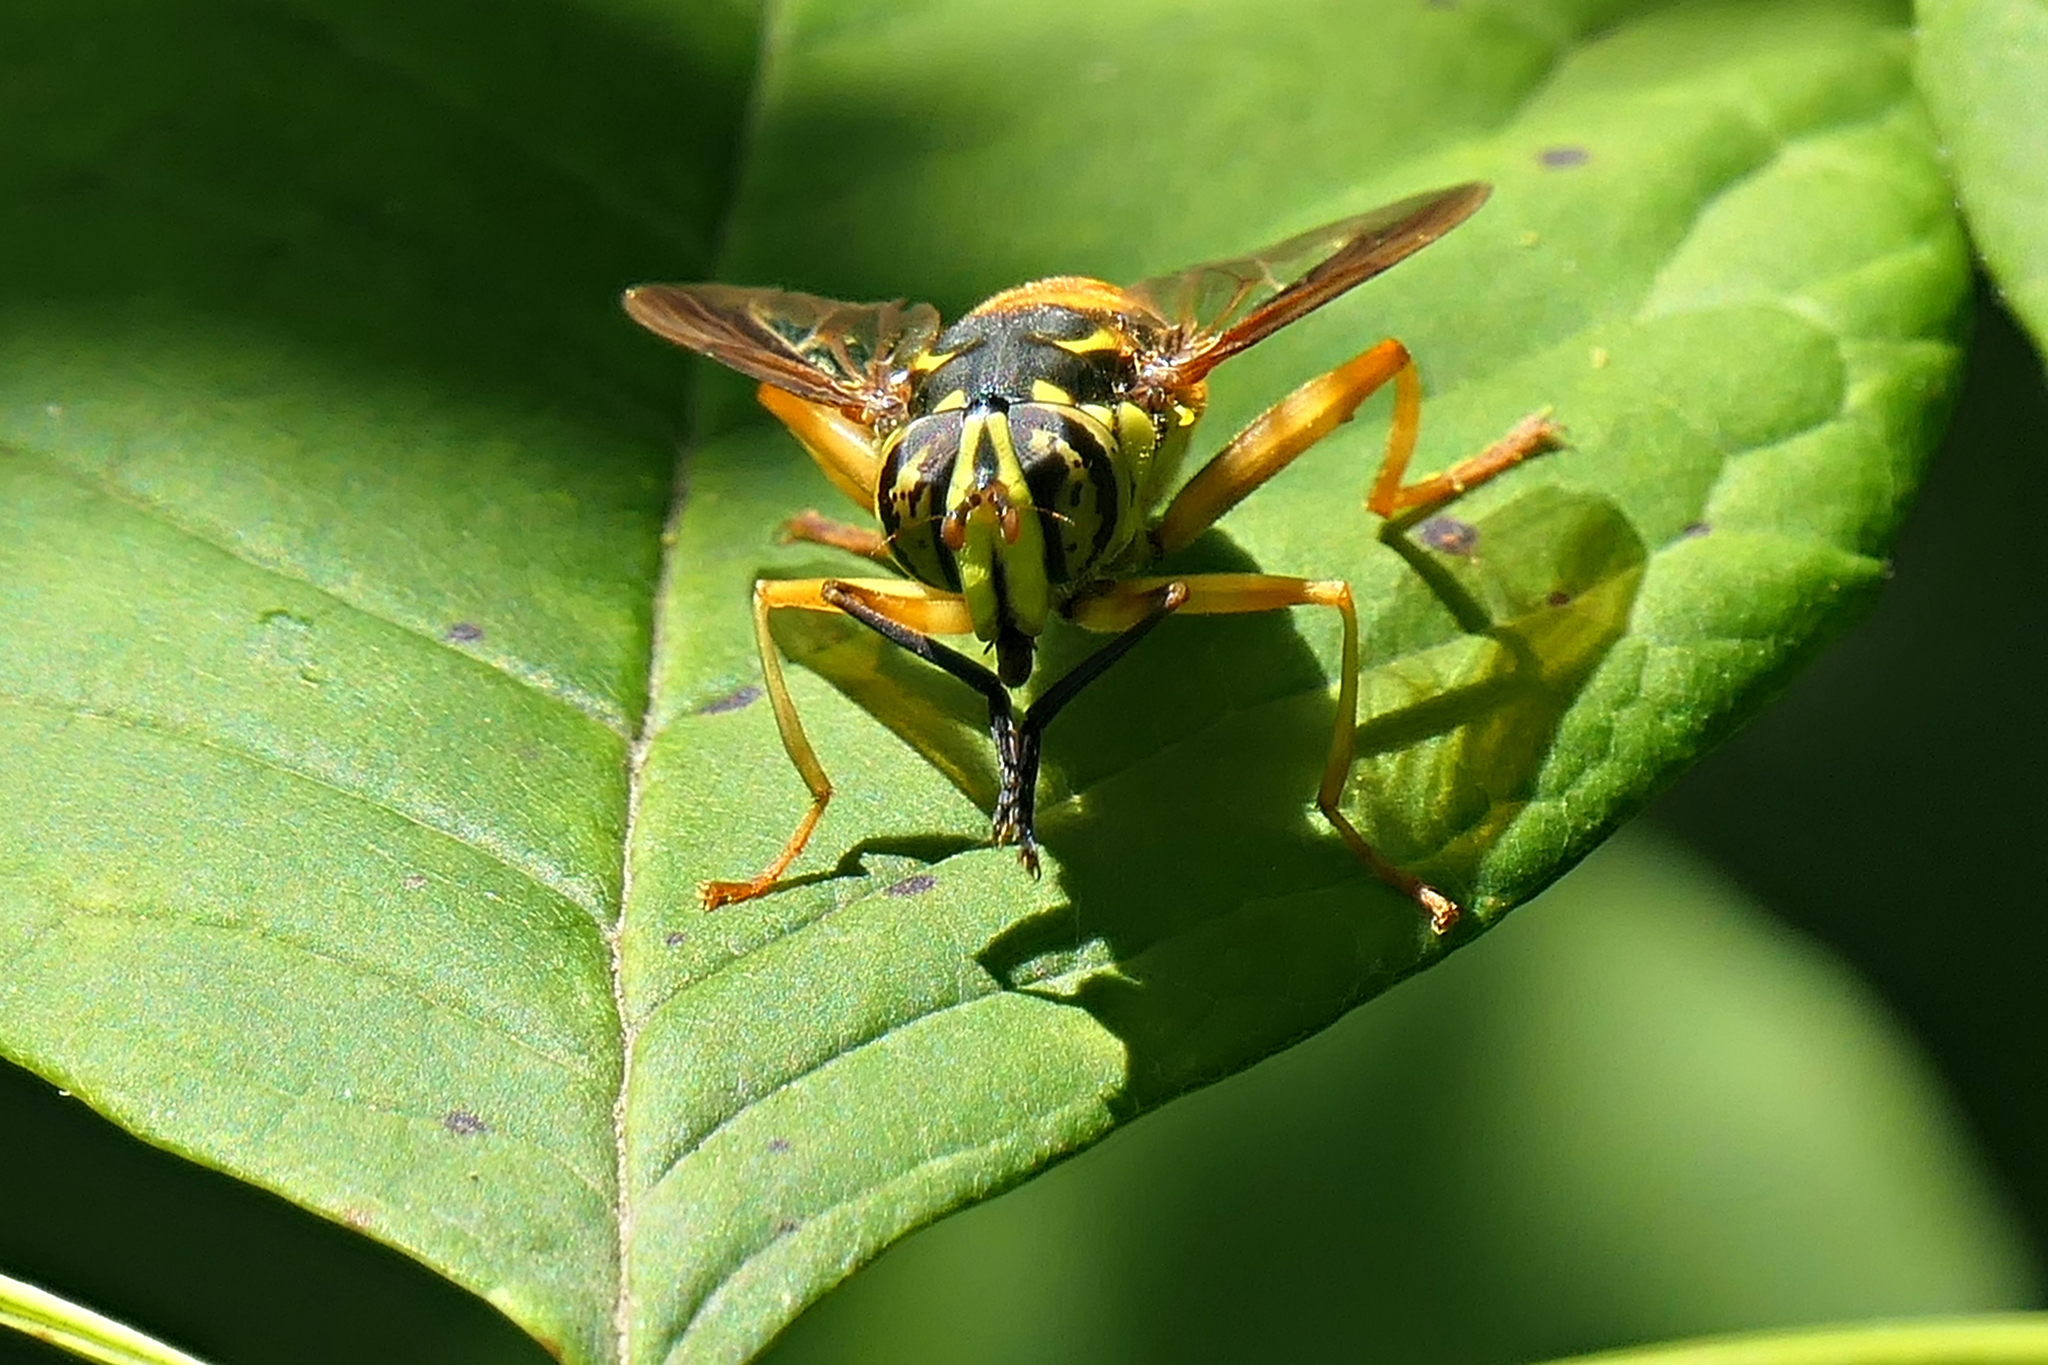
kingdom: Animalia
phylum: Arthropoda
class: Insecta
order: Diptera
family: Syrphidae
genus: Spilomyia
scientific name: Spilomyia alcimus
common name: Broad-banded hornet fly
